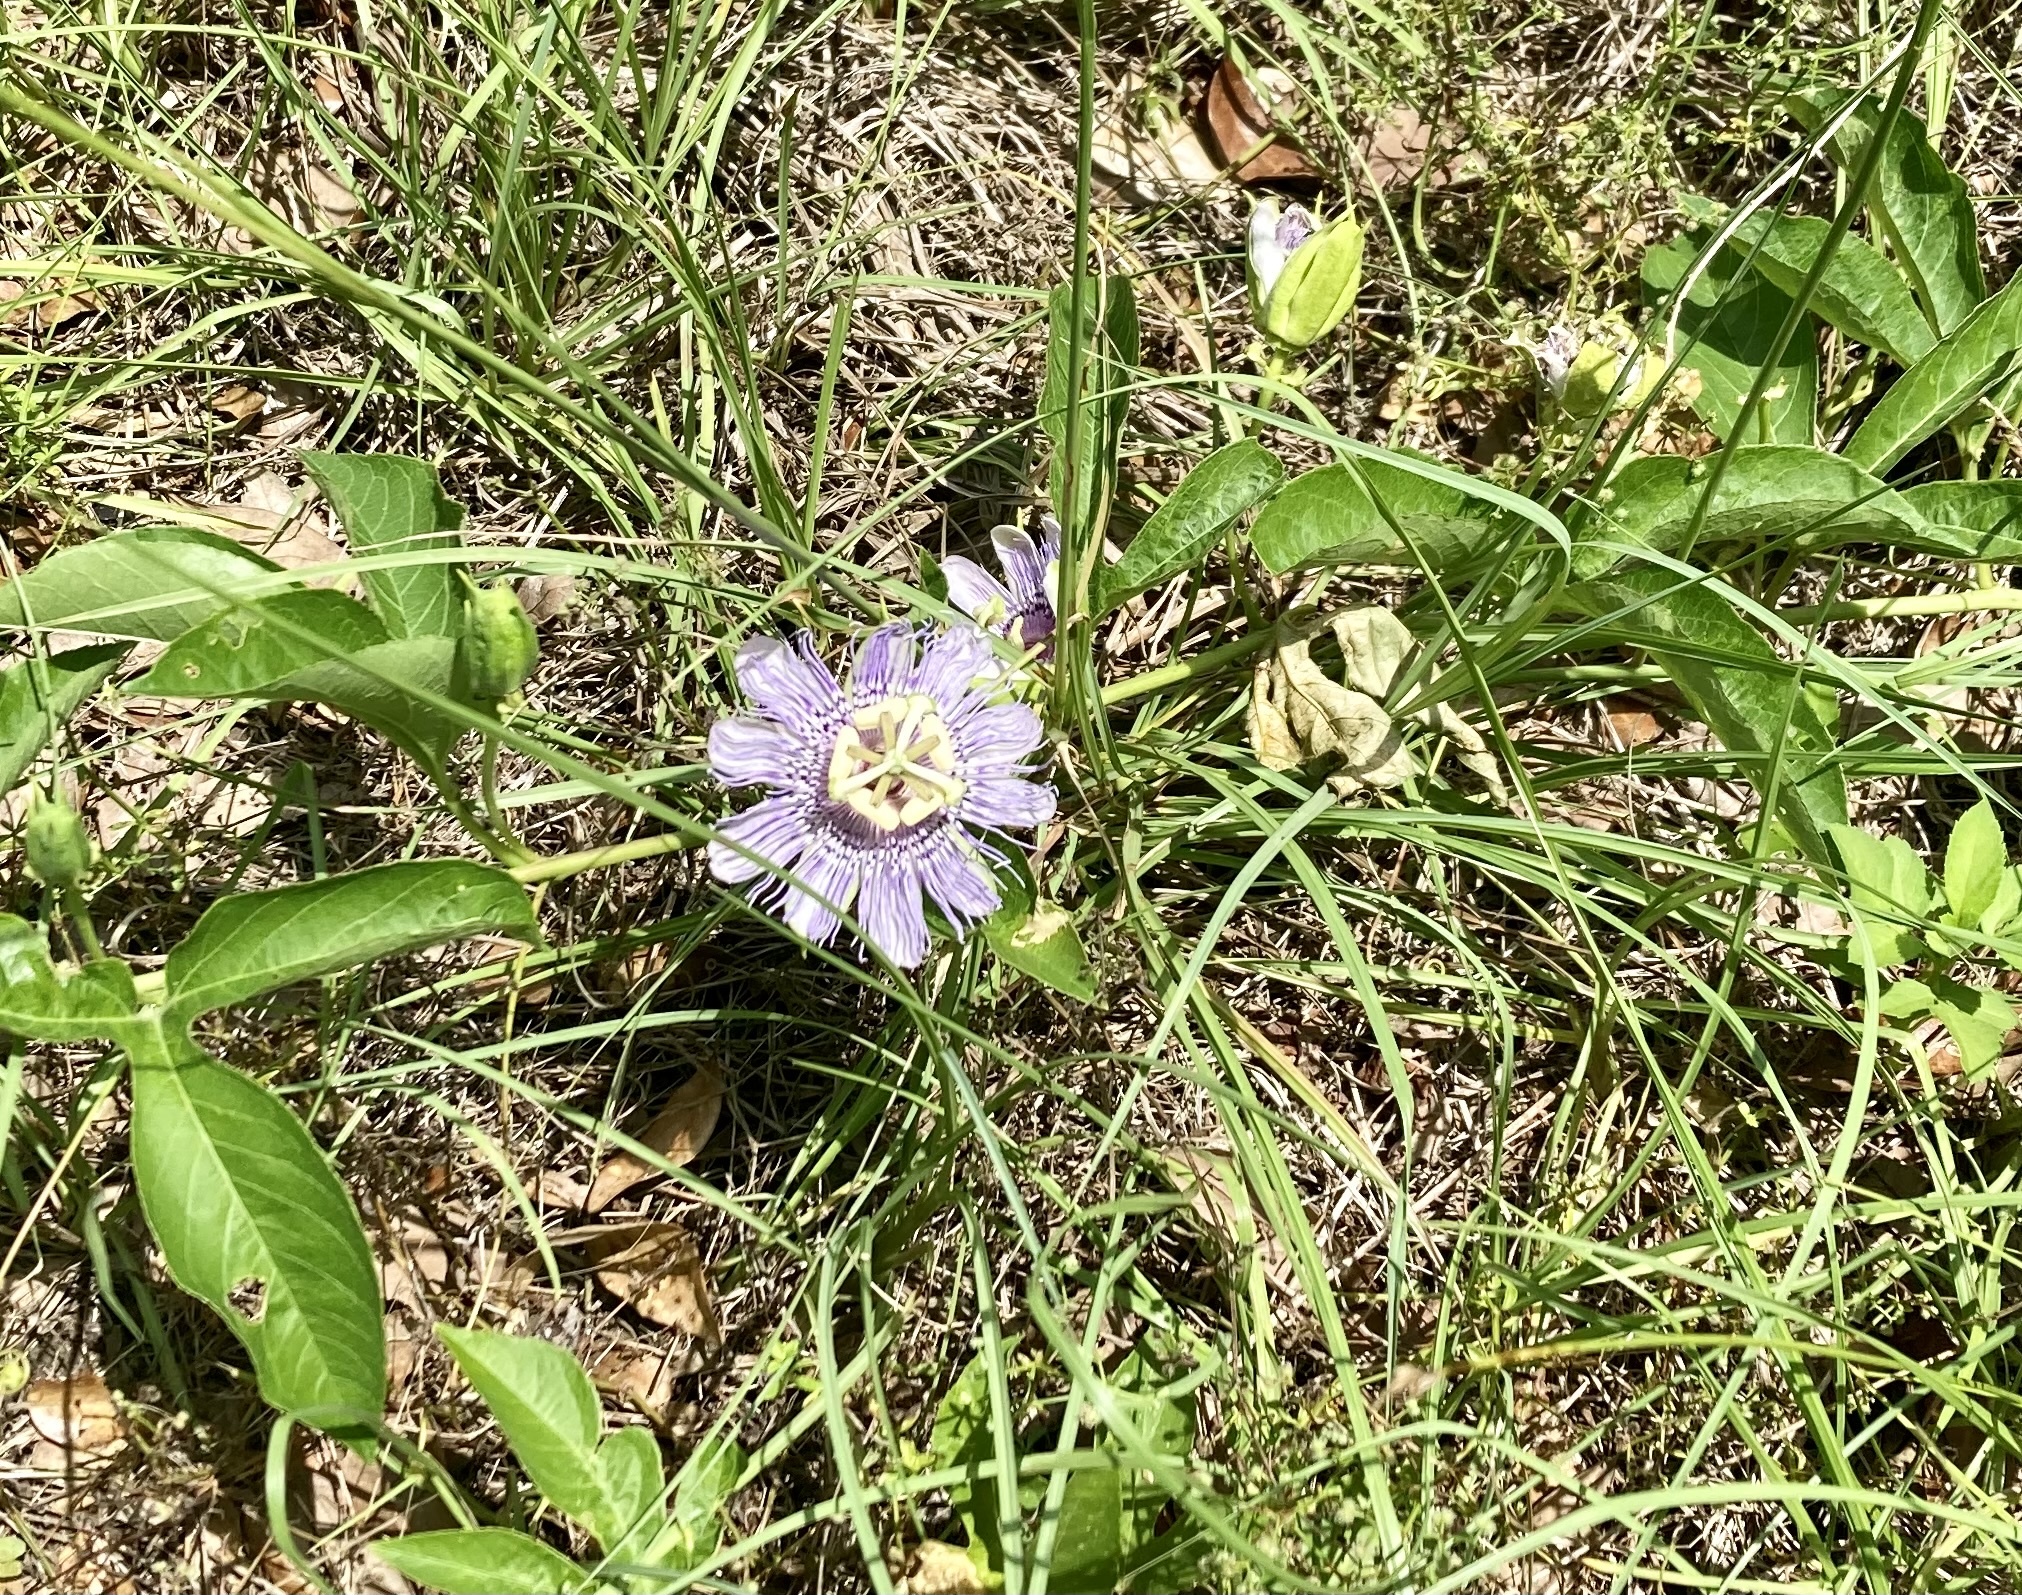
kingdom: Plantae
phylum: Tracheophyta
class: Magnoliopsida
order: Malpighiales
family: Passifloraceae
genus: Passiflora
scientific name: Passiflora incarnata
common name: Apricot-vine
